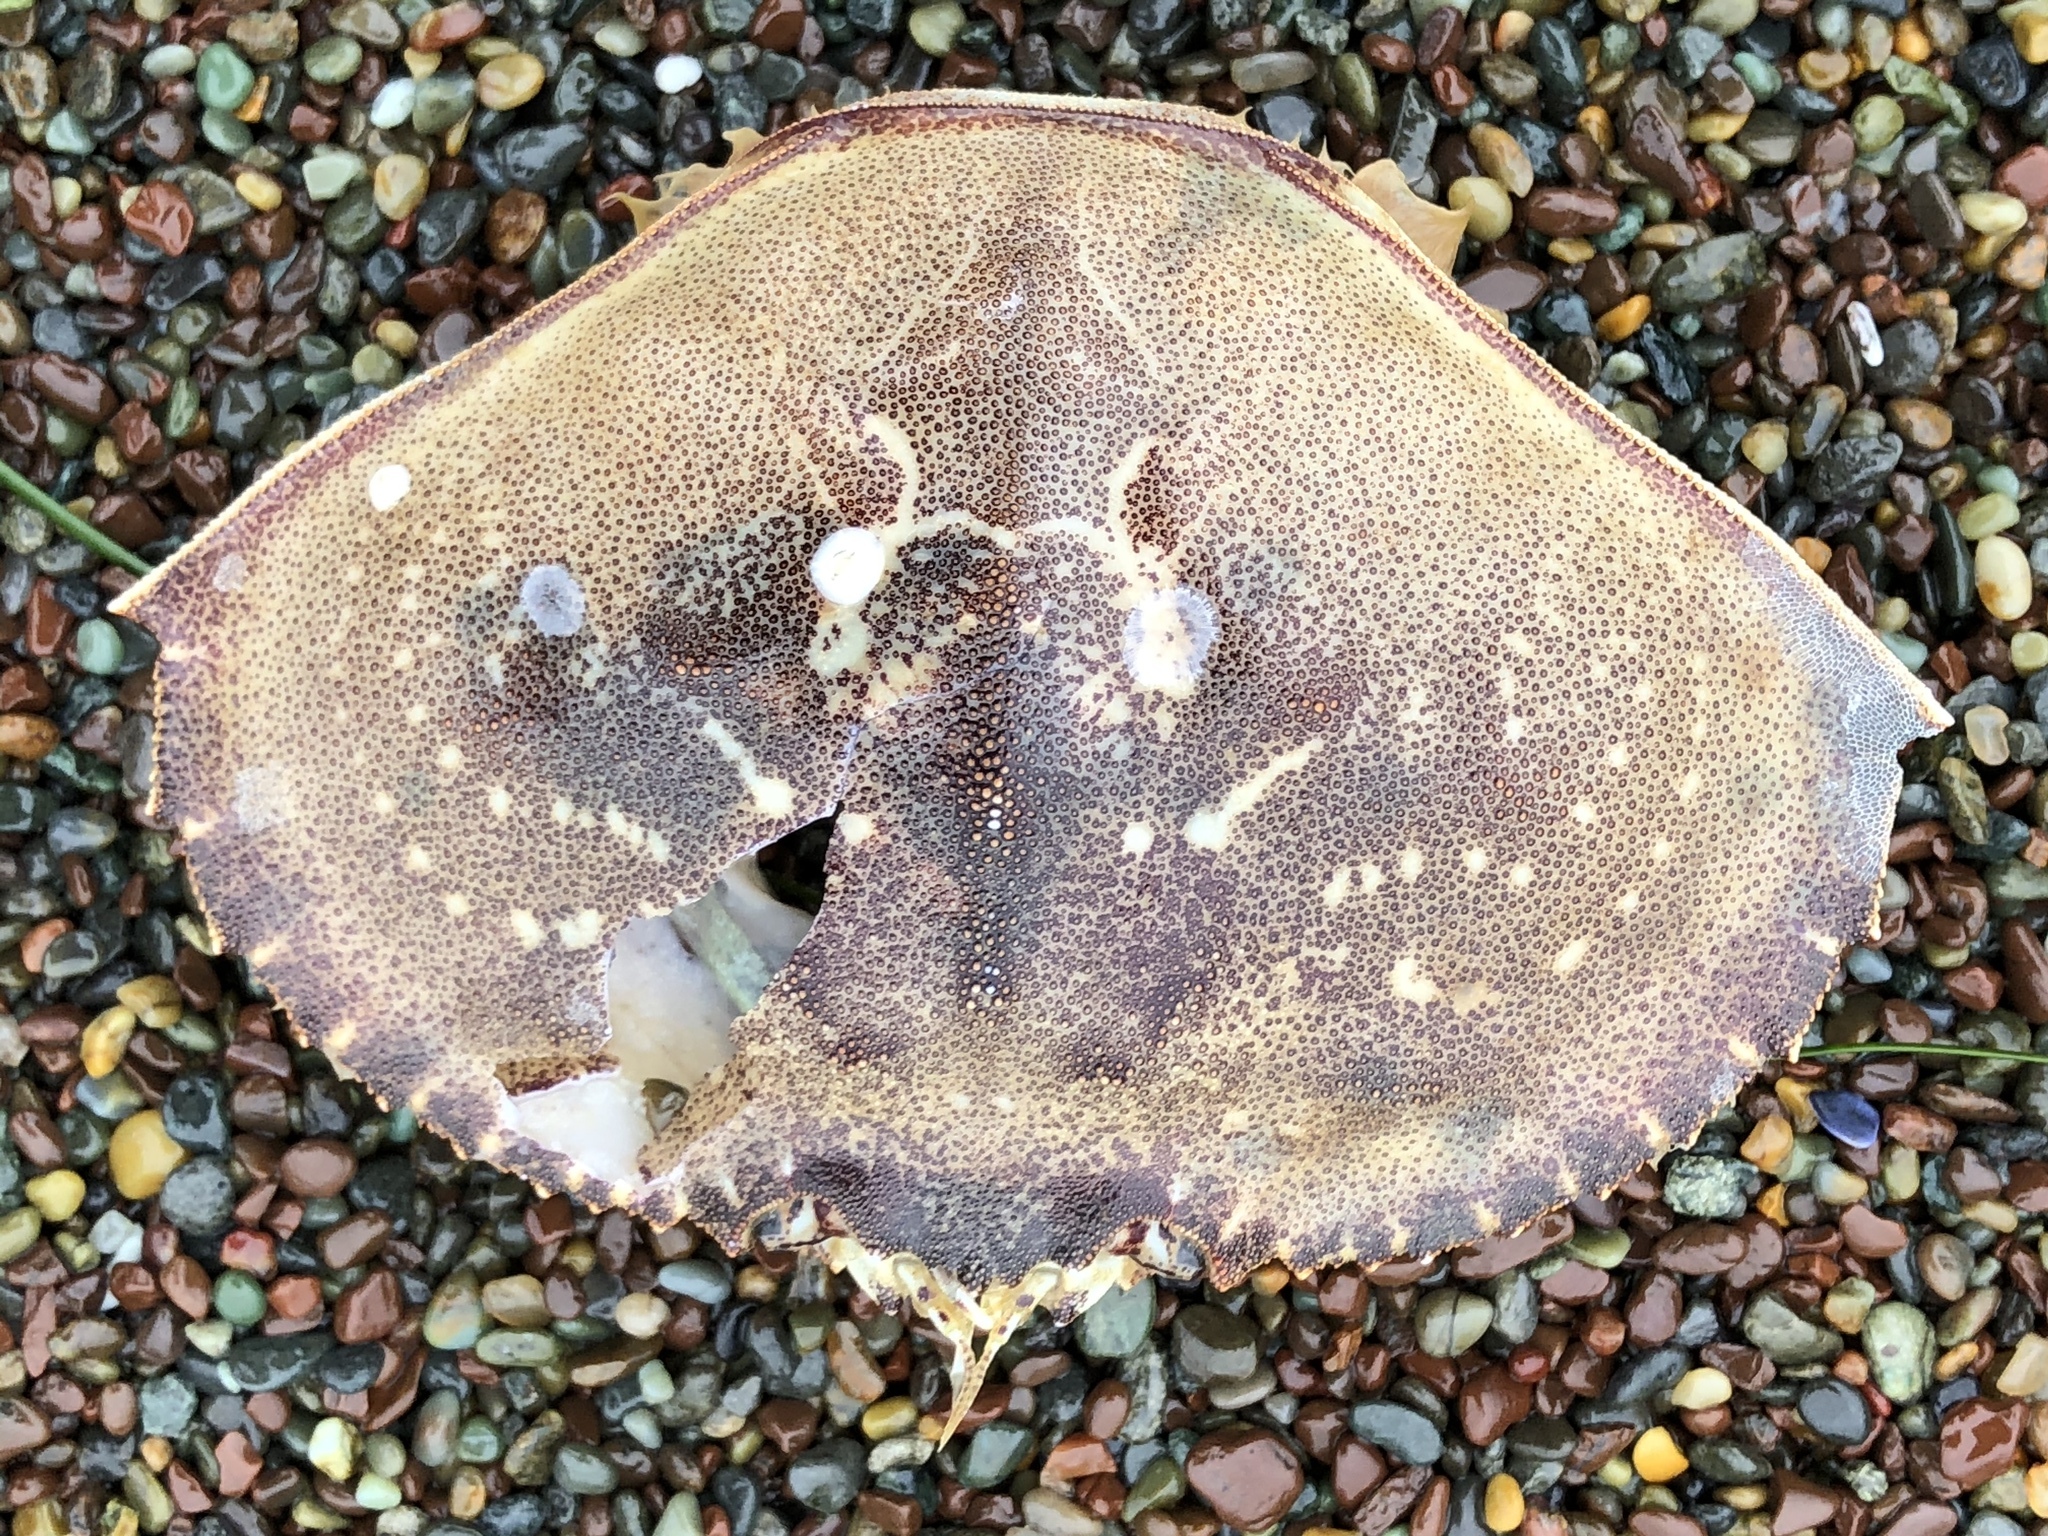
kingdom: Animalia
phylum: Arthropoda
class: Malacostraca
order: Decapoda
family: Cancridae
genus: Metacarcinus
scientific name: Metacarcinus magister
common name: Californian crab
